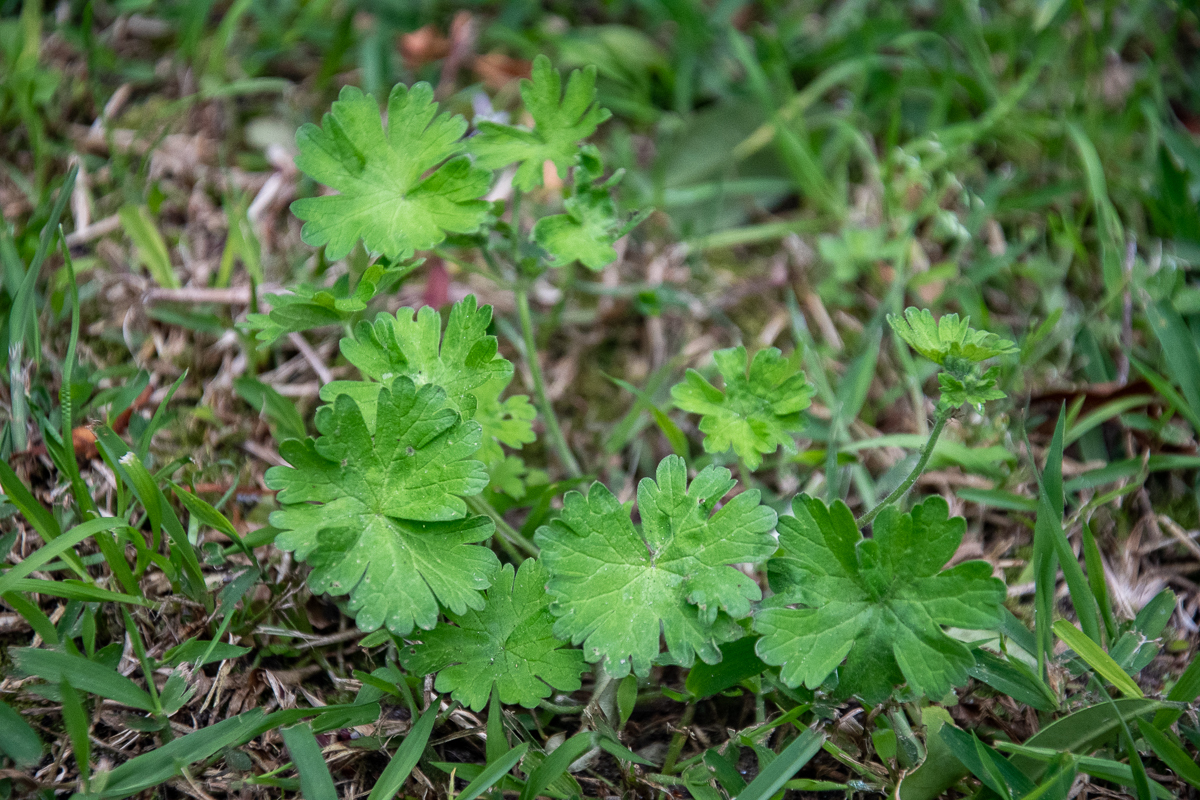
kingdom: Plantae
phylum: Tracheophyta
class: Magnoliopsida
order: Geraniales
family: Geraniaceae
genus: Geranium
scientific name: Geranium molle
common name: Dove's-foot crane's-bill
